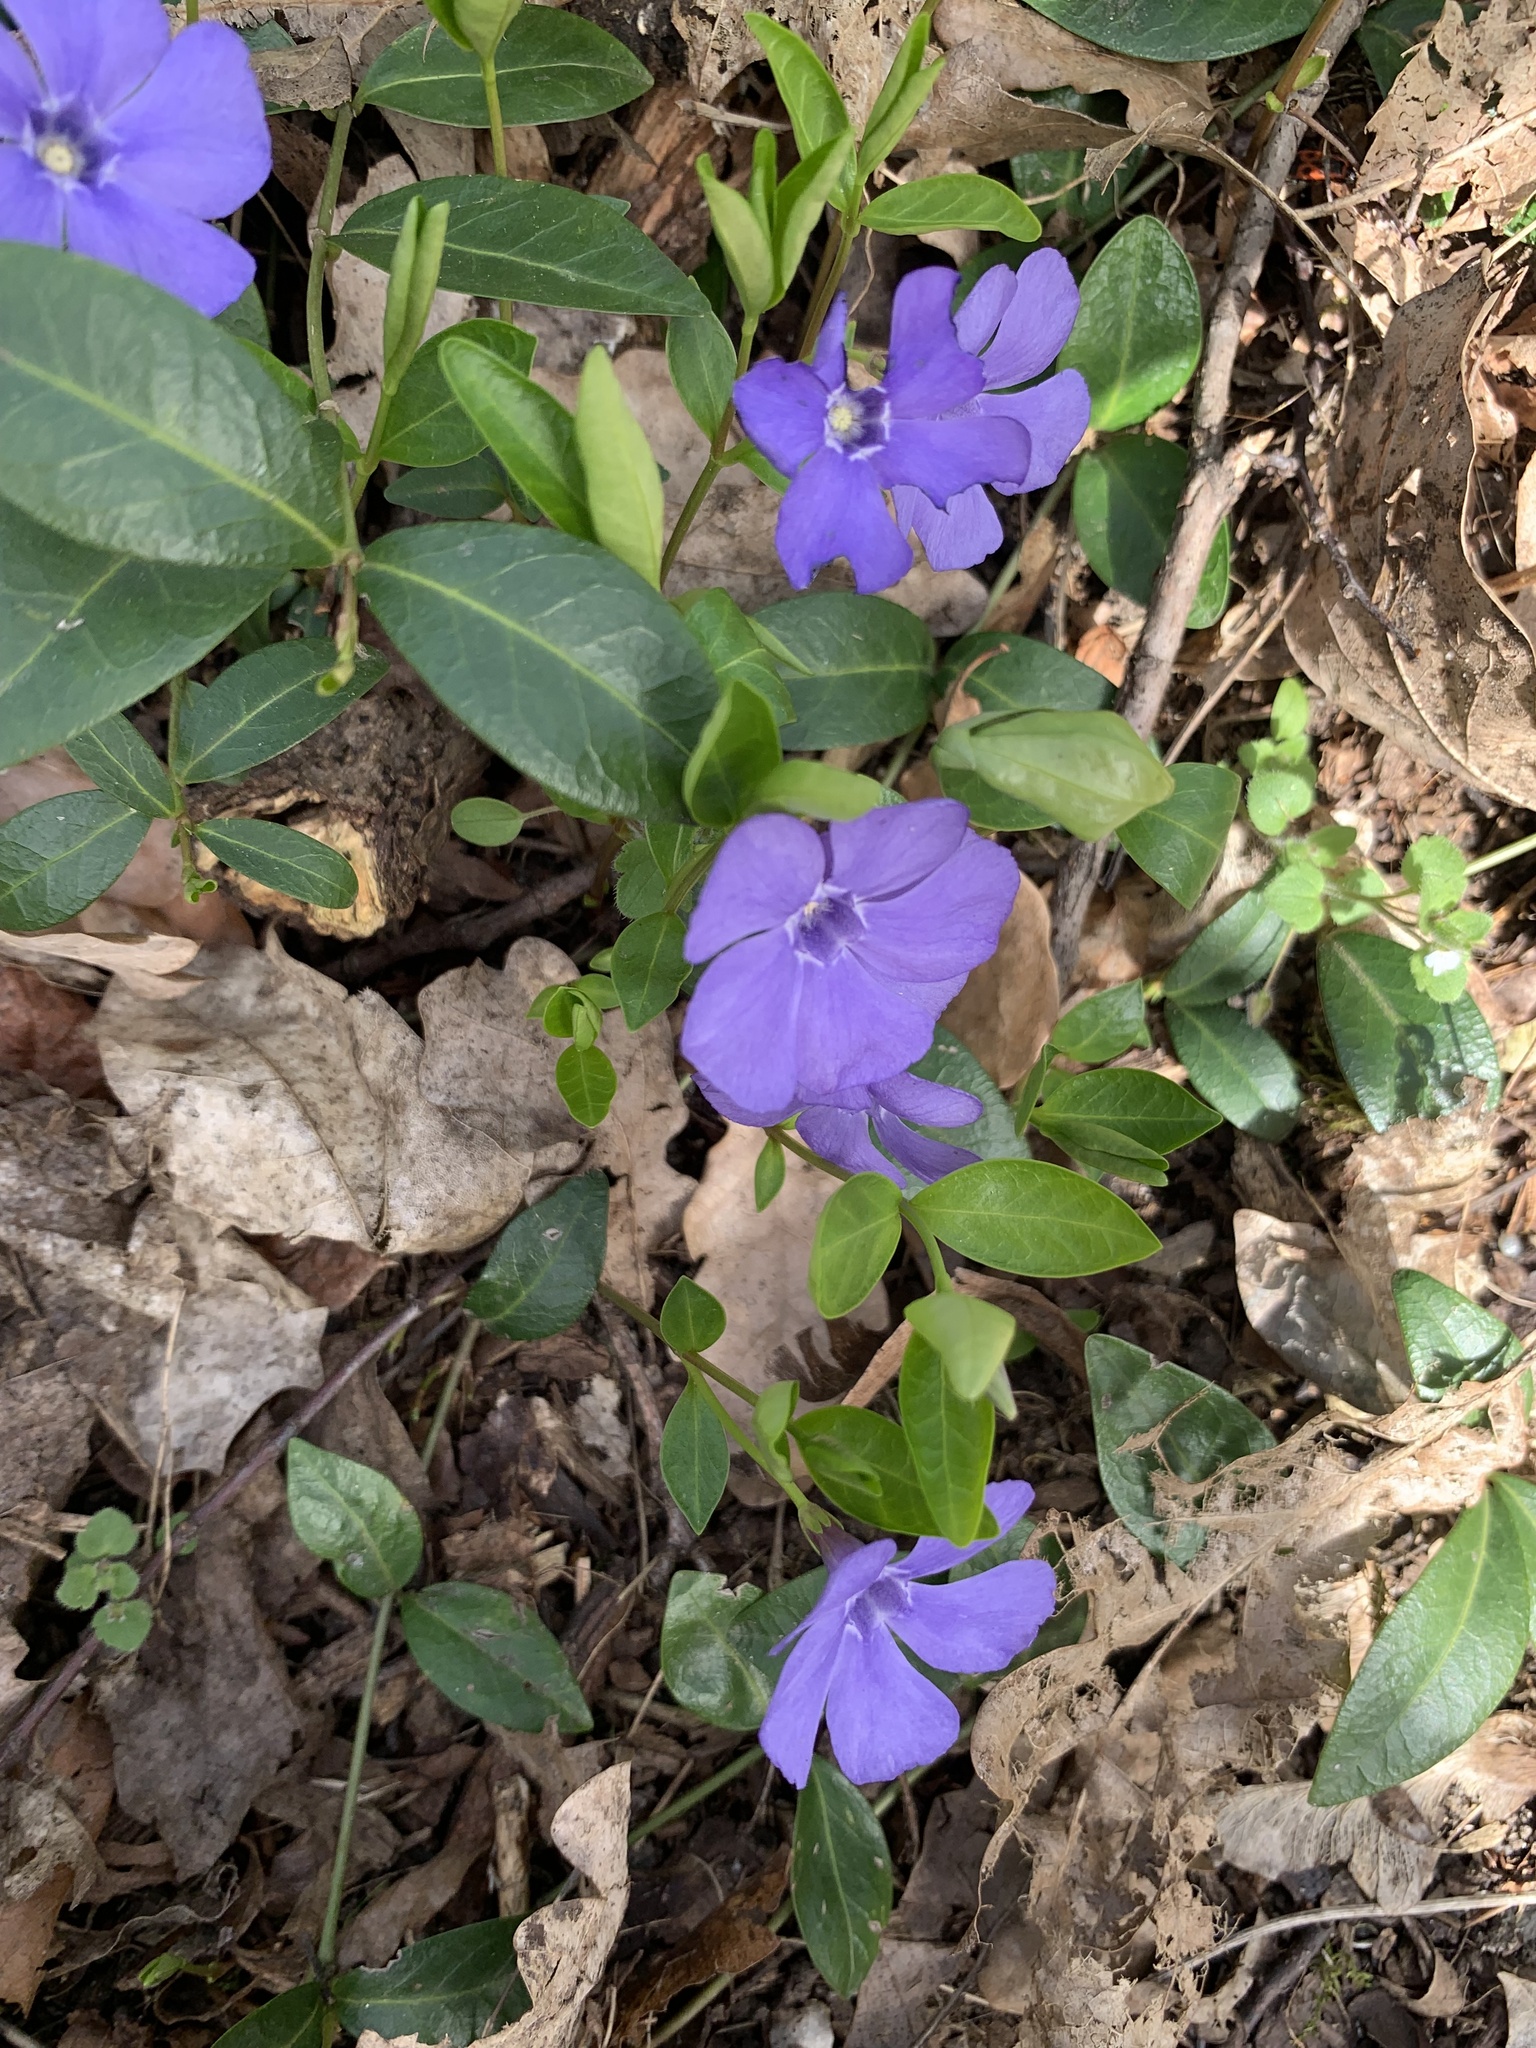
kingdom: Plantae
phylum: Tracheophyta
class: Magnoliopsida
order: Gentianales
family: Apocynaceae
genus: Vinca
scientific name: Vinca minor
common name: Lesser periwinkle
